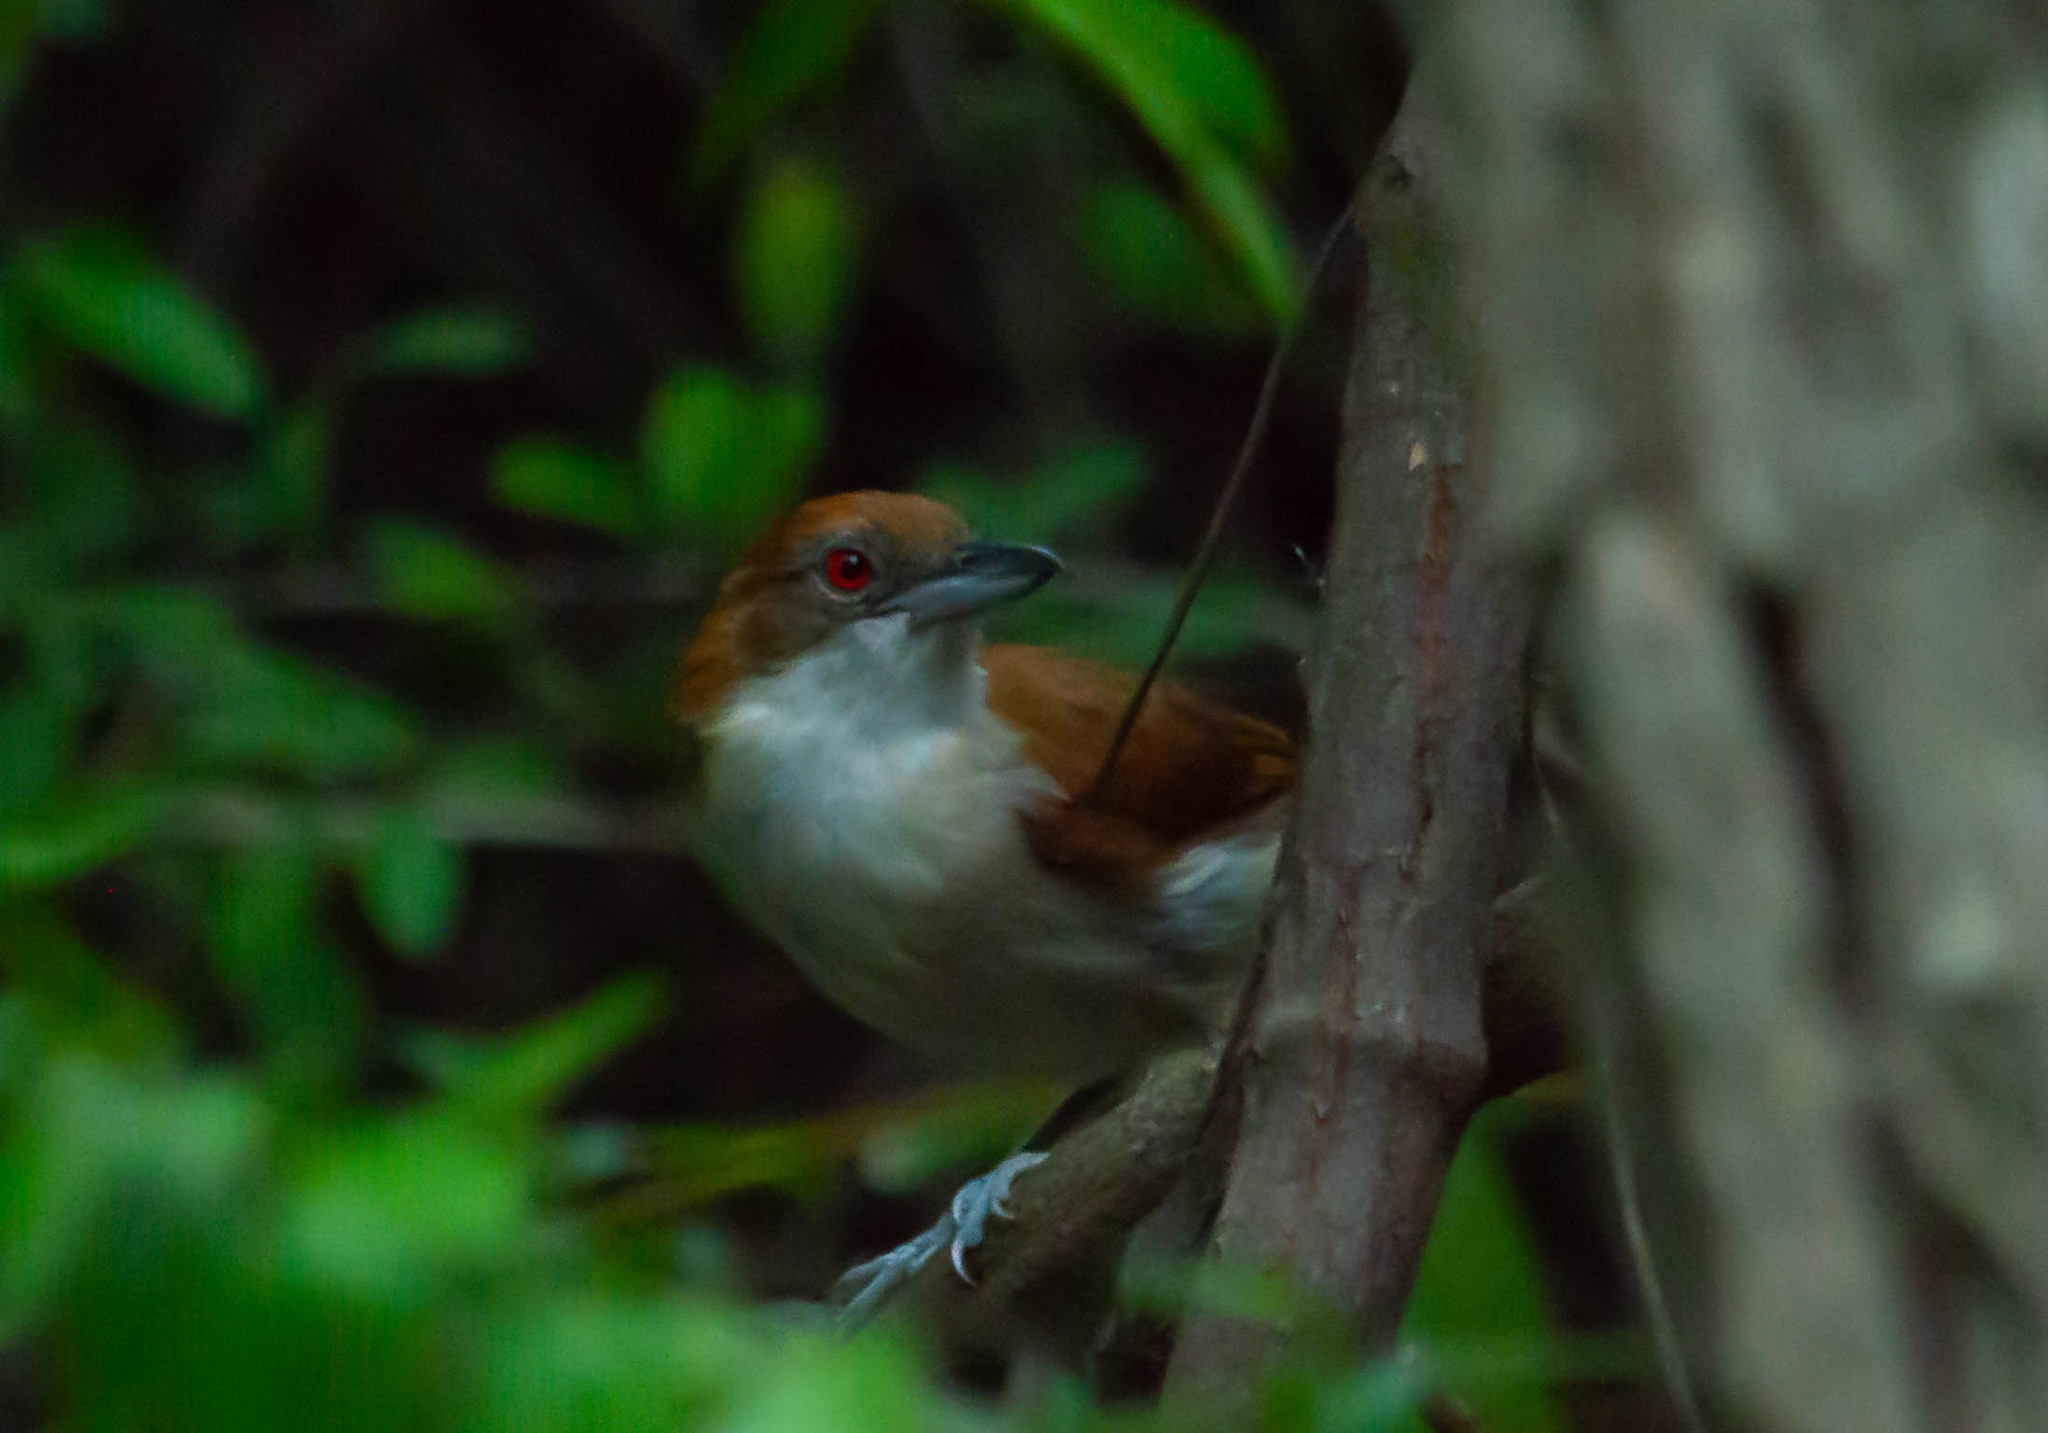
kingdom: Animalia
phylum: Chordata
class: Aves
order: Passeriformes
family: Thamnophilidae
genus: Taraba
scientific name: Taraba major
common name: Great antshrike
